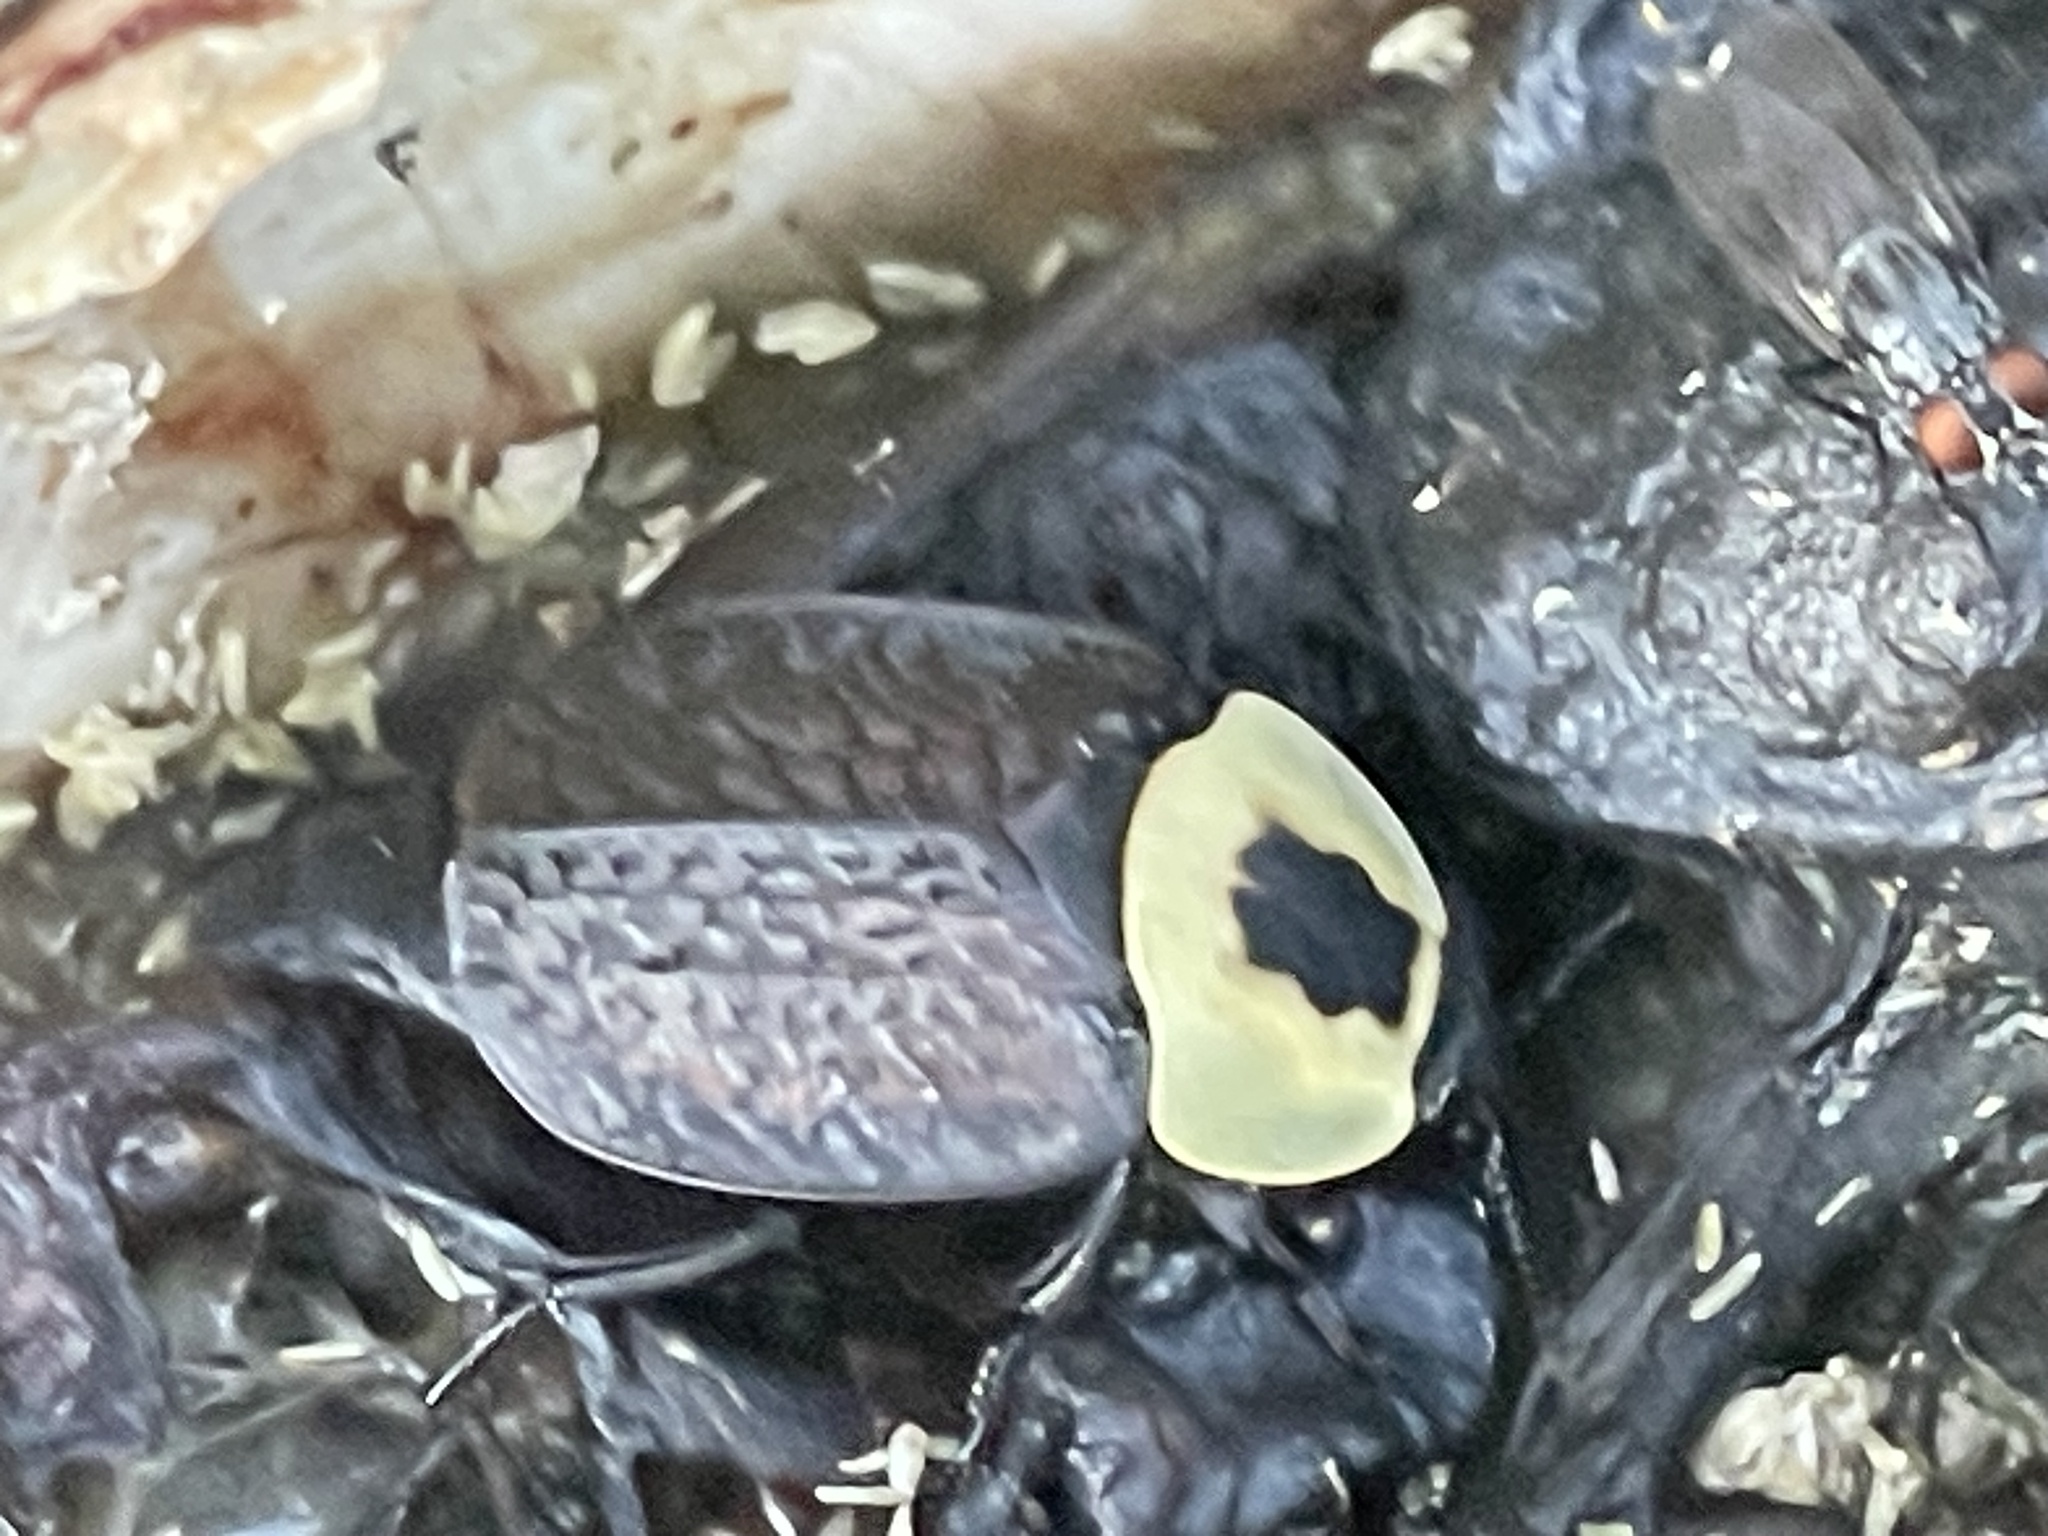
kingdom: Animalia
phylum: Arthropoda
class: Insecta
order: Coleoptera
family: Staphylinidae
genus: Necrophila
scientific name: Necrophila americana
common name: American carrion beetle
